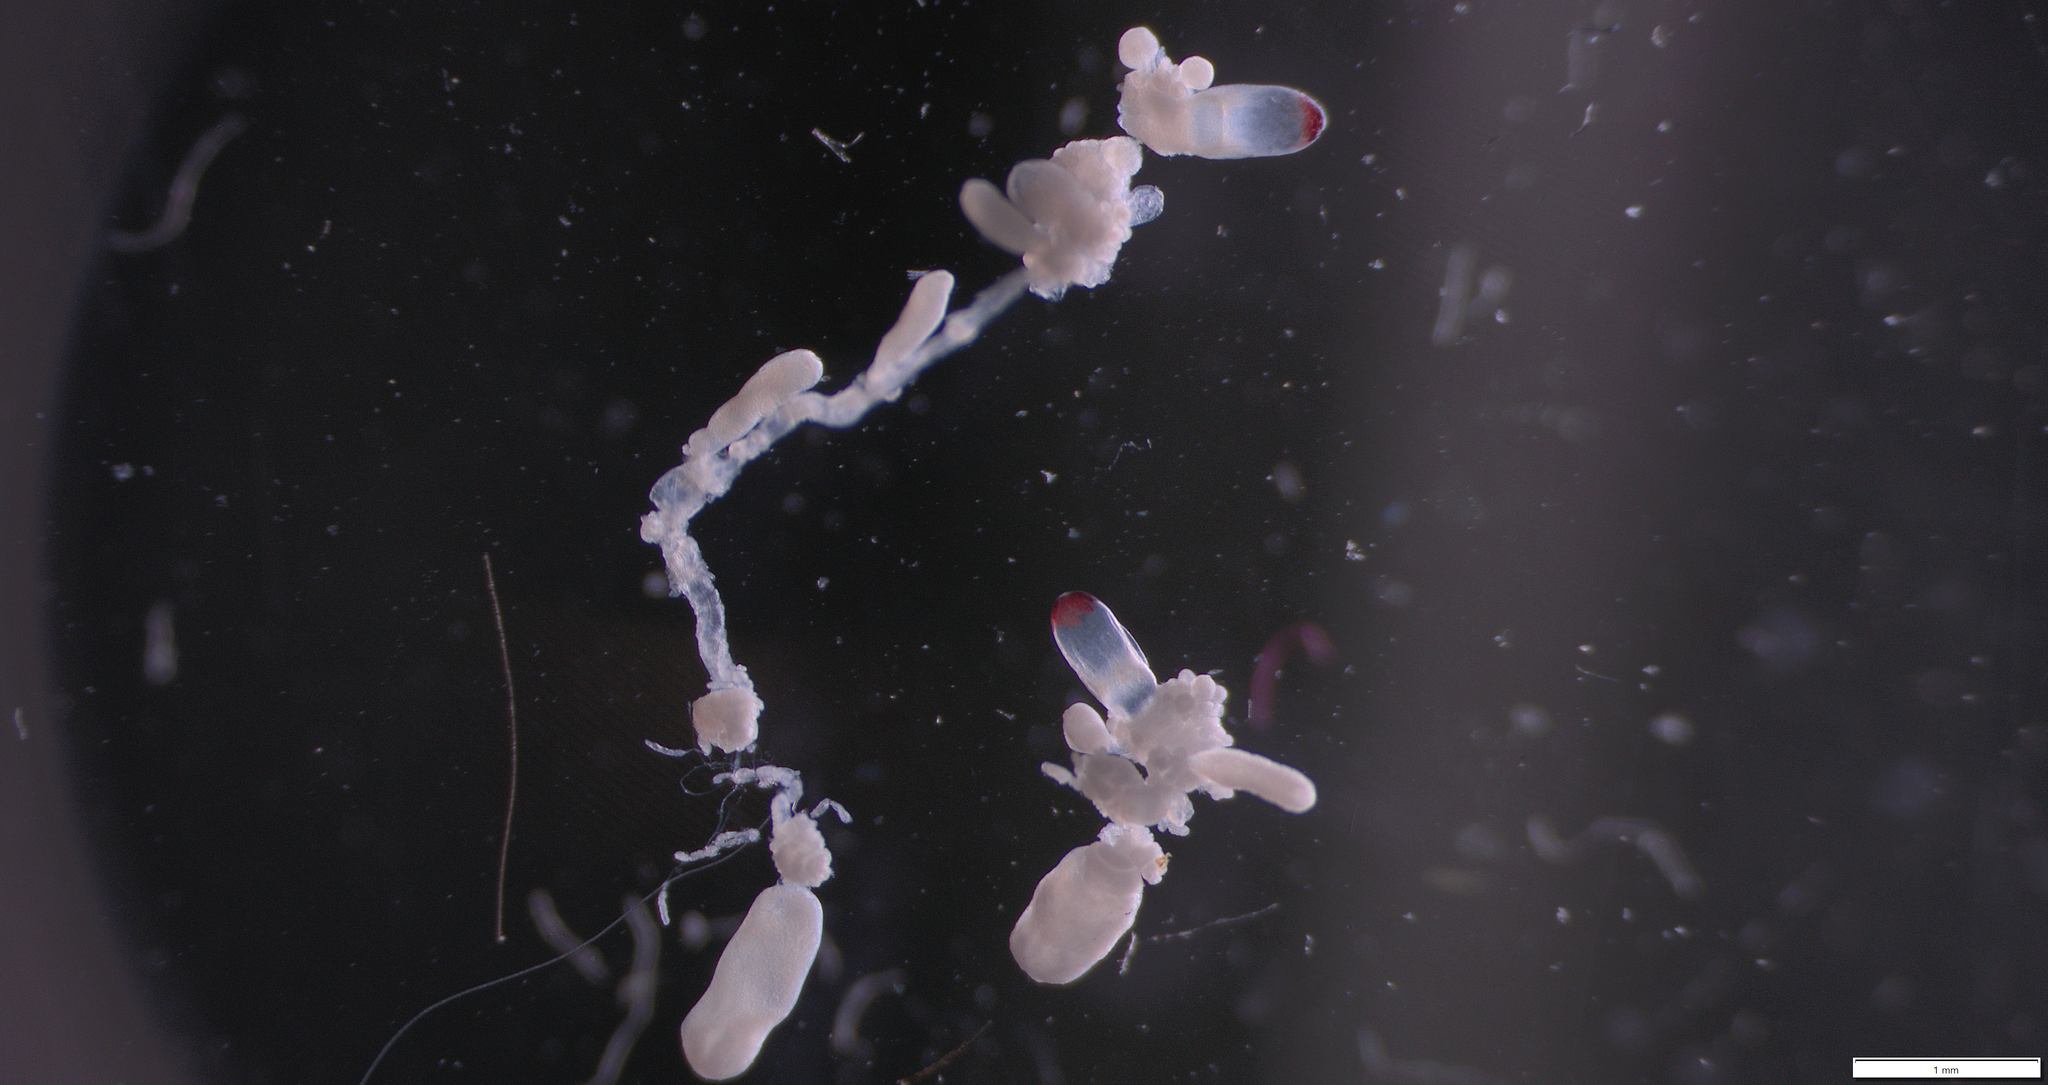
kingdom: Animalia
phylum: Cnidaria
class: Hydrozoa
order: Siphonophorae
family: Agalmatidae
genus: Nanomia
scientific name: Nanomia cara
